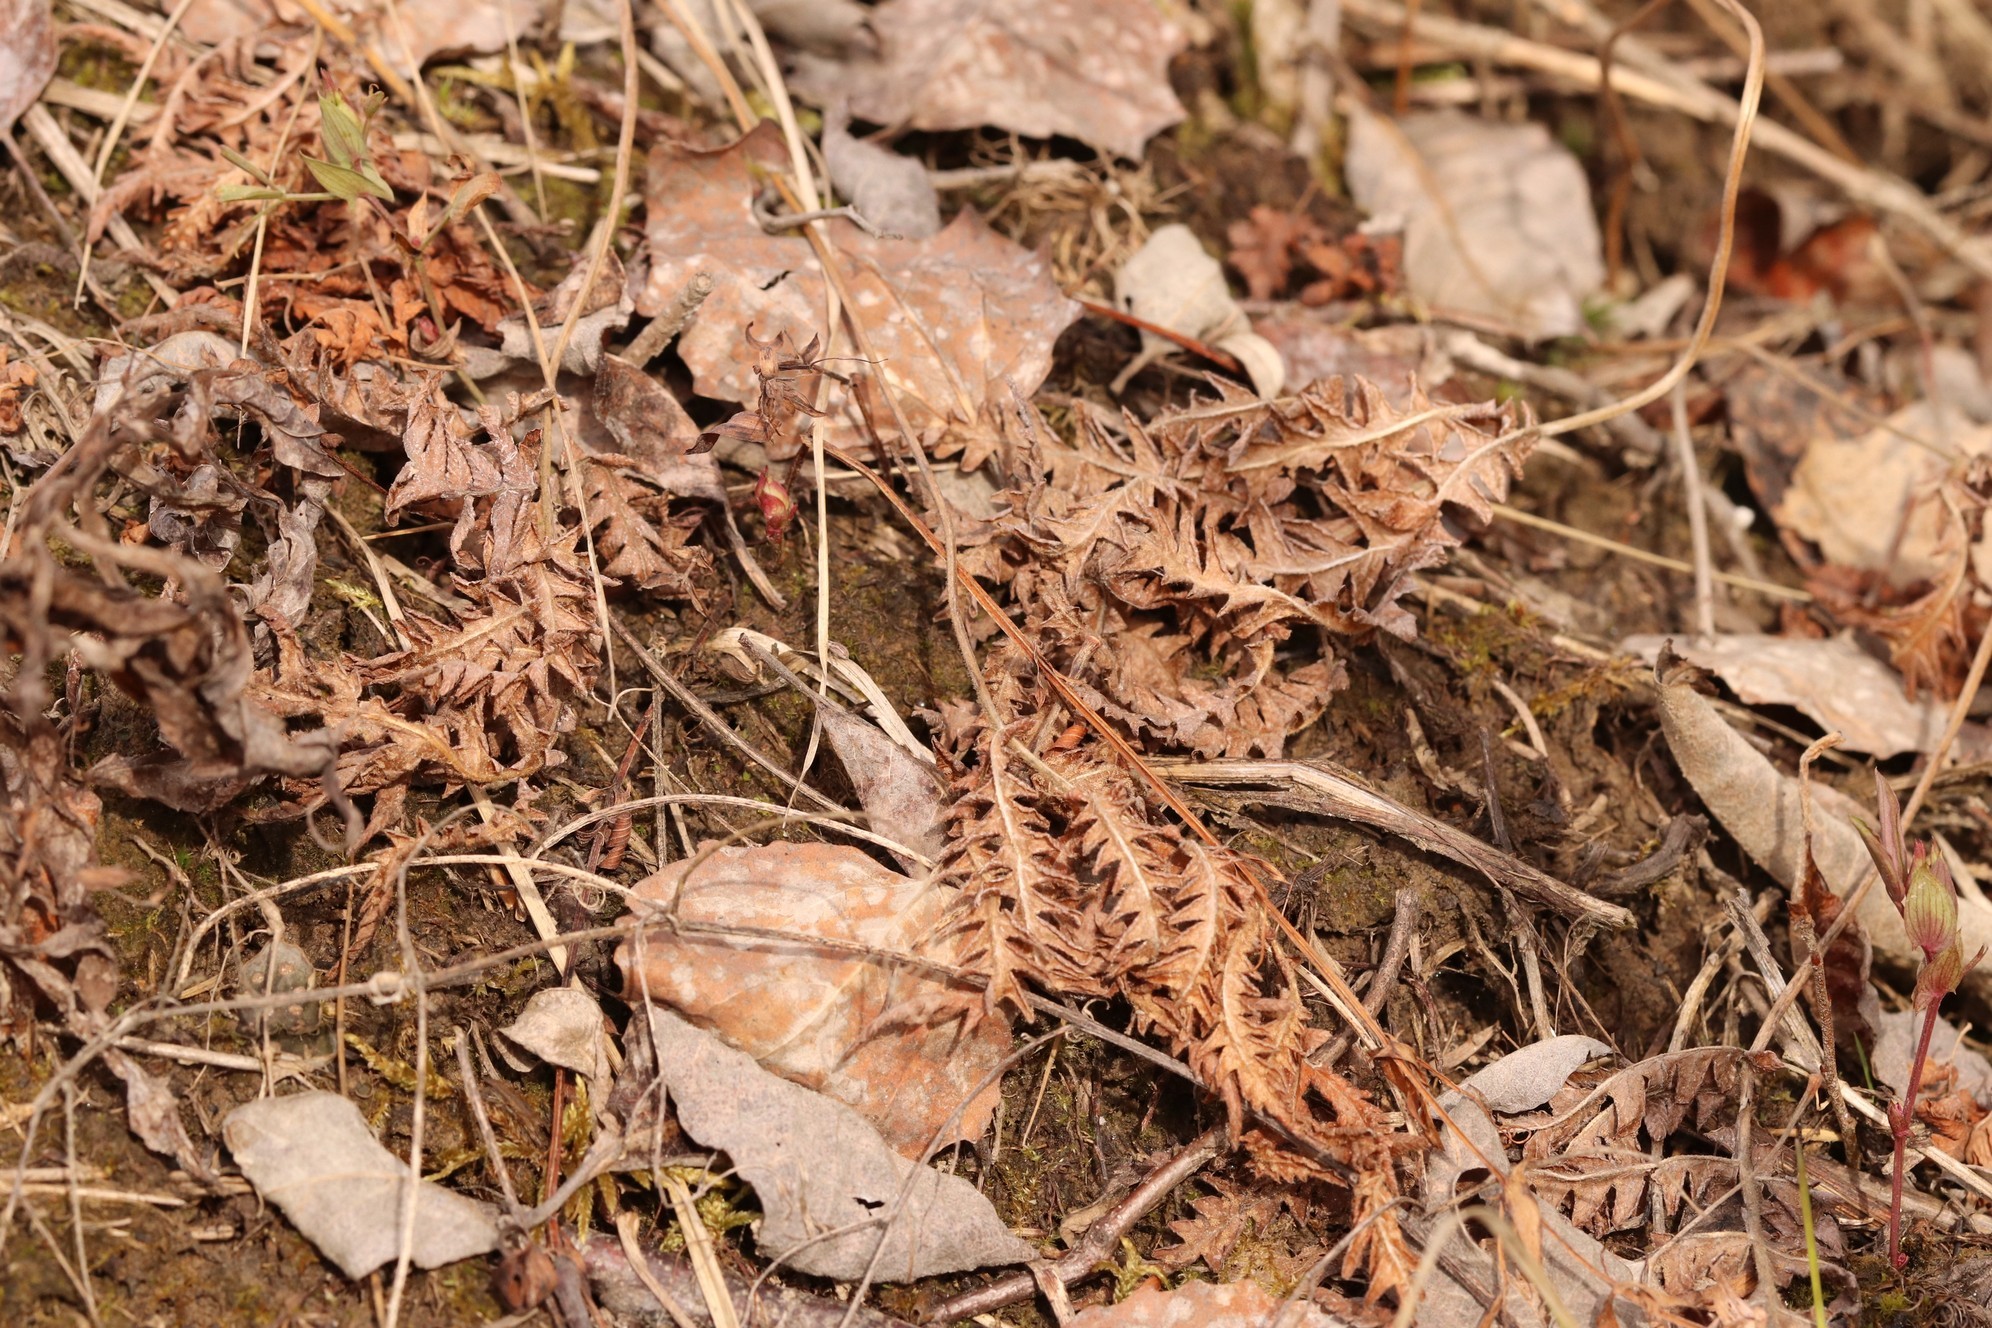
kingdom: Plantae
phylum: Tracheophyta
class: Polypodiopsida
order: Polypodiales
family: Thelypteridaceae
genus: Phegopteris
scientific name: Phegopteris connectilis
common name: Beech fern
